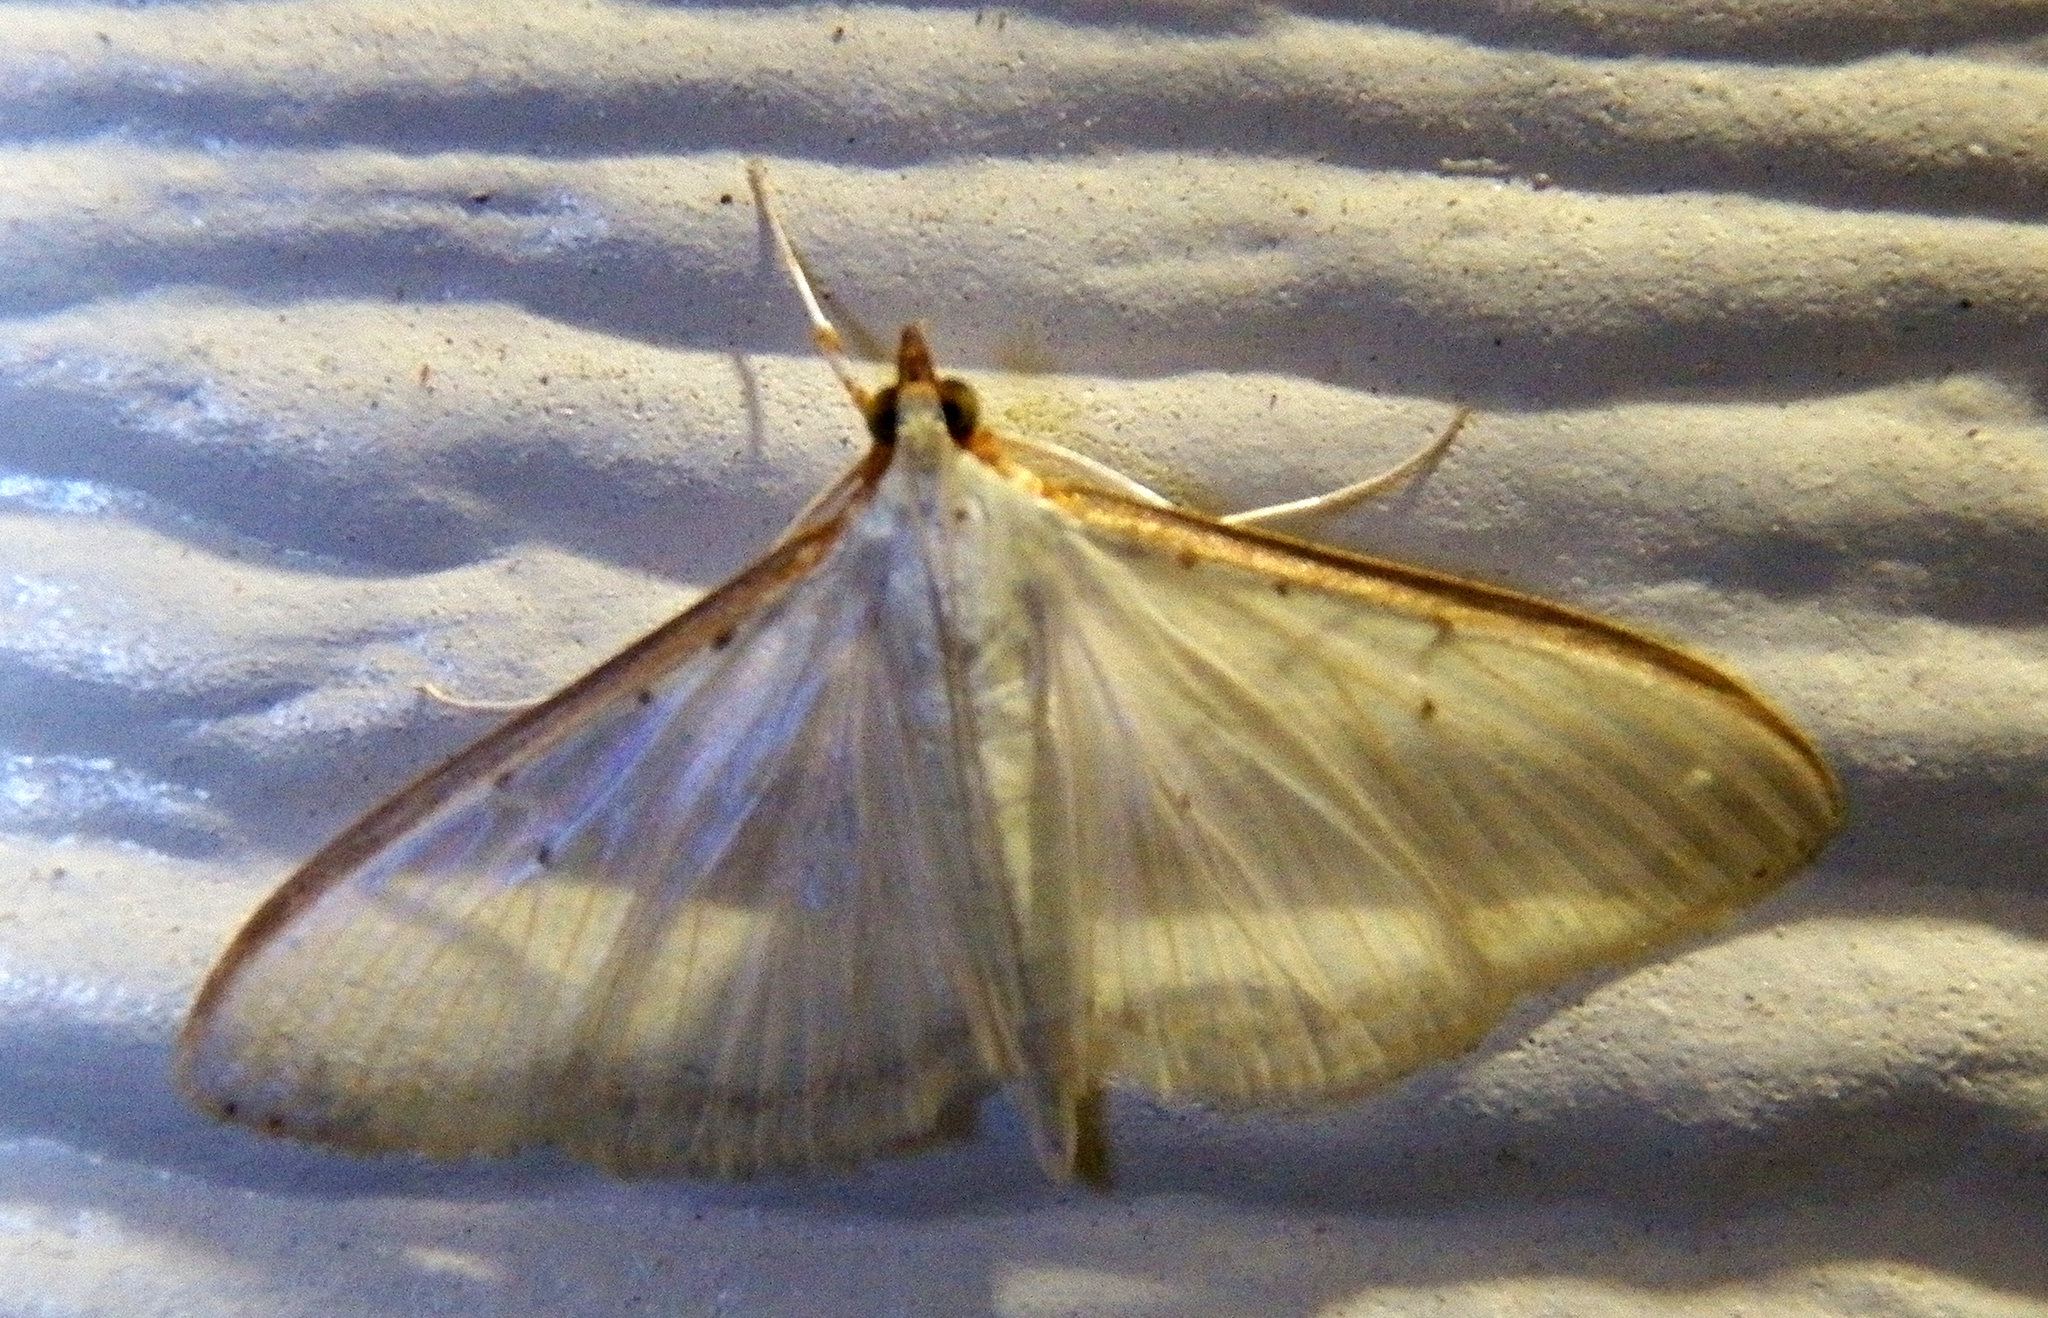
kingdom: Animalia
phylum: Arthropoda
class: Insecta
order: Lepidoptera
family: Crambidae
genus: Palpita
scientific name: Palpita quadristigmalis
